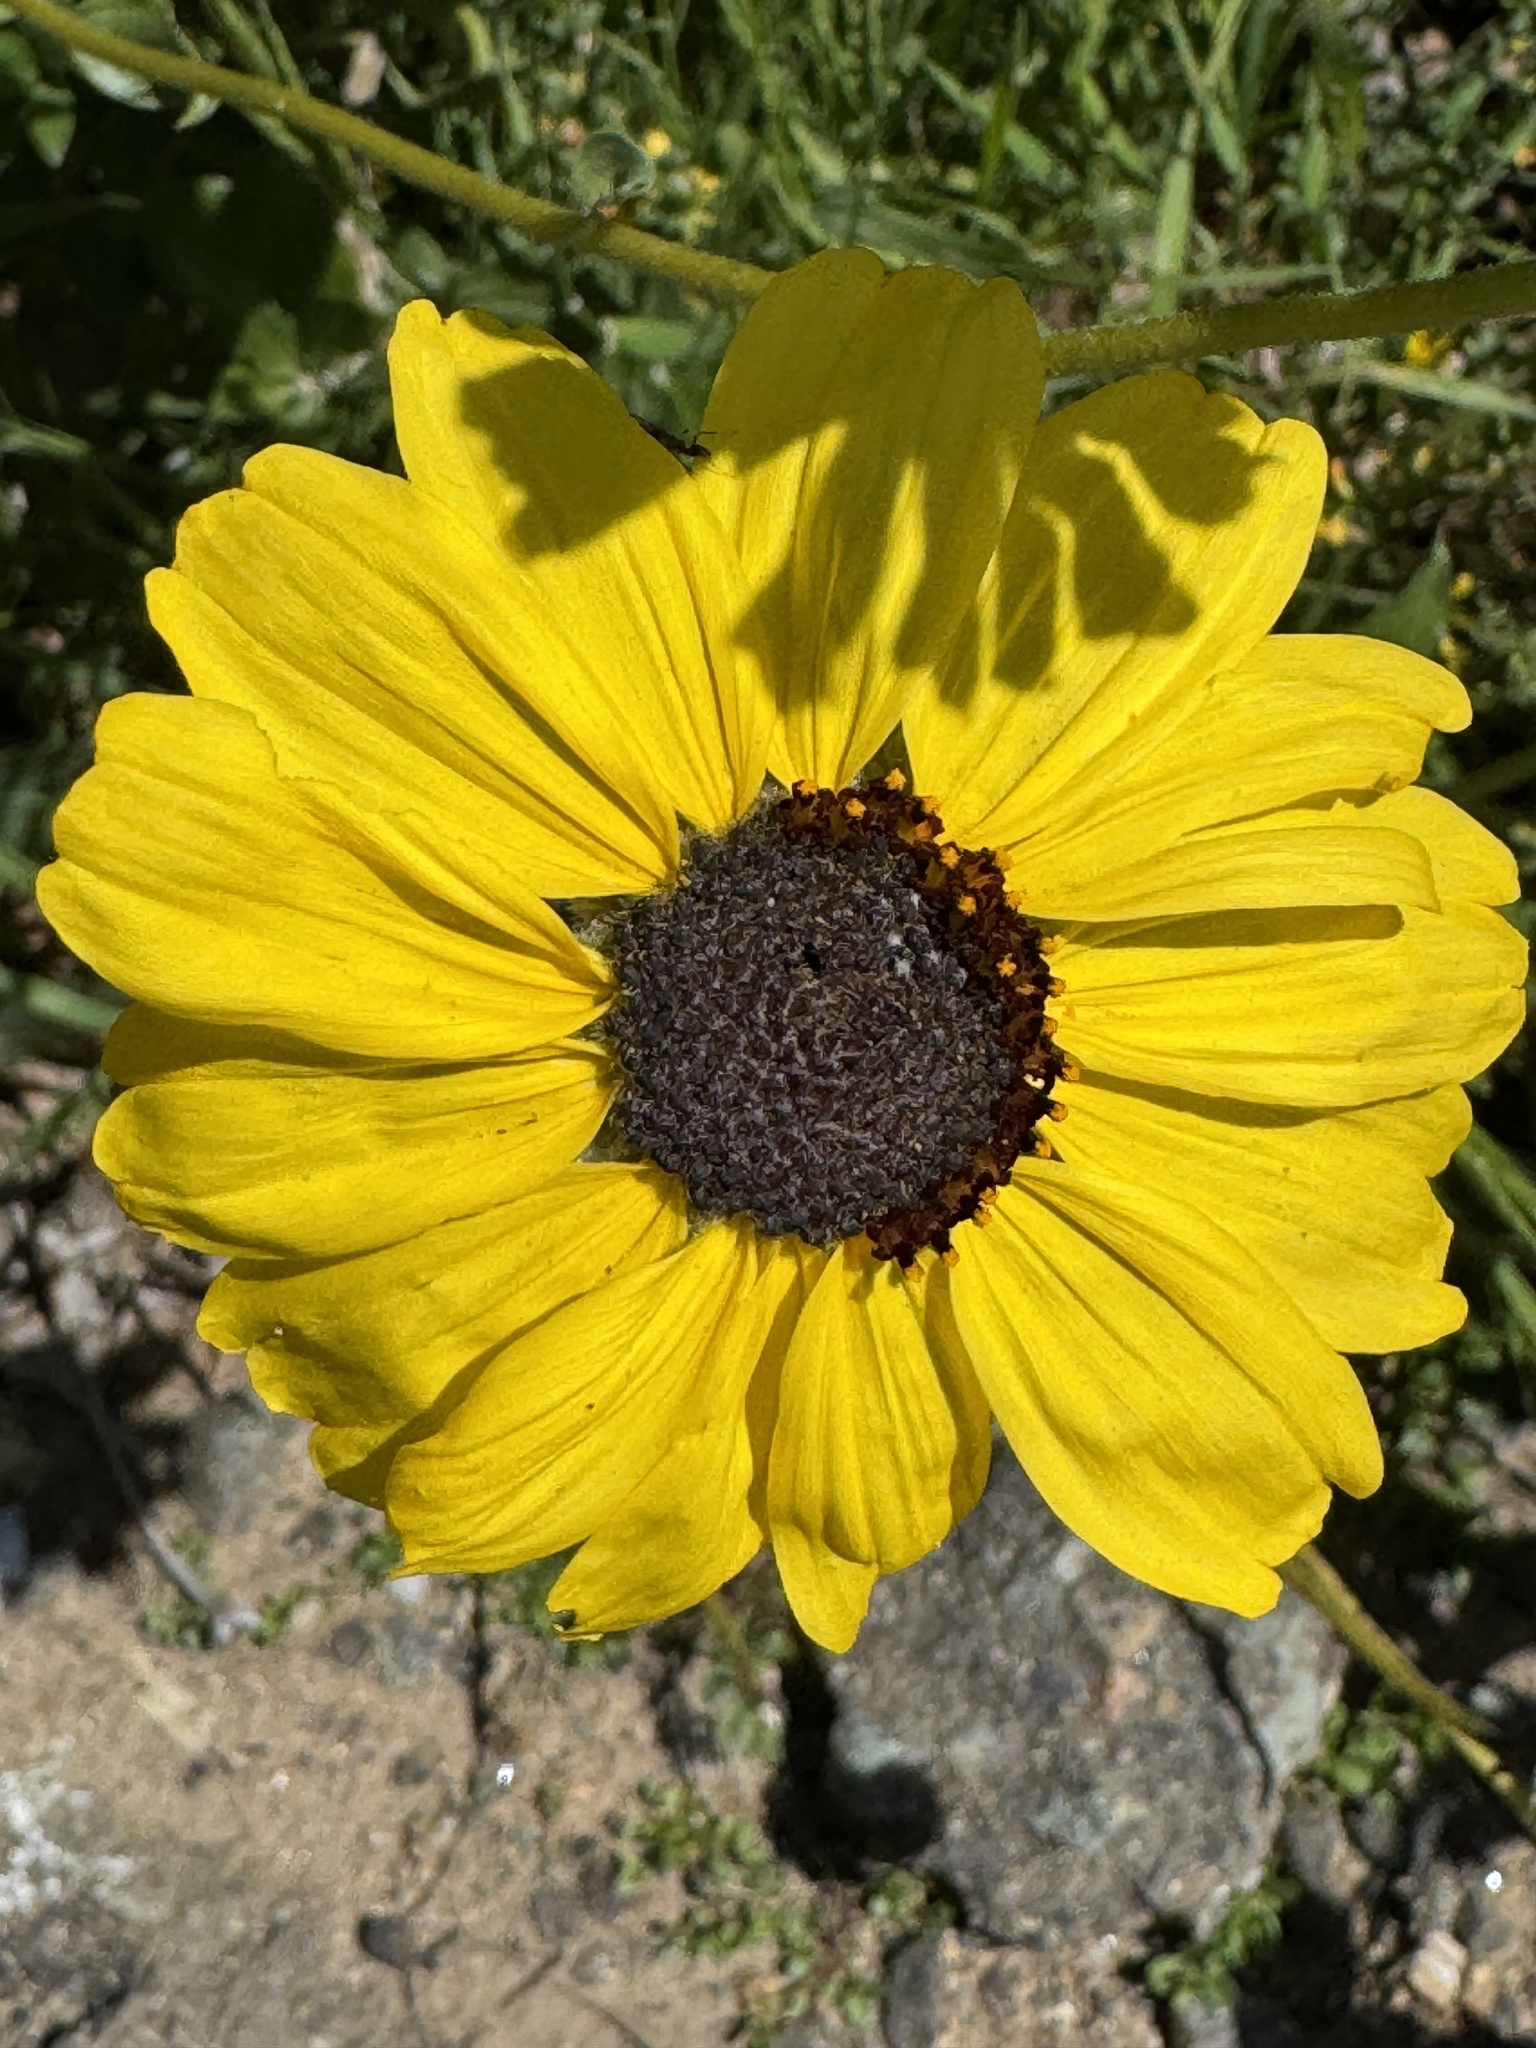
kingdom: Plantae
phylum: Tracheophyta
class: Magnoliopsida
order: Asterales
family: Asteraceae
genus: Encelia
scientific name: Encelia californica
